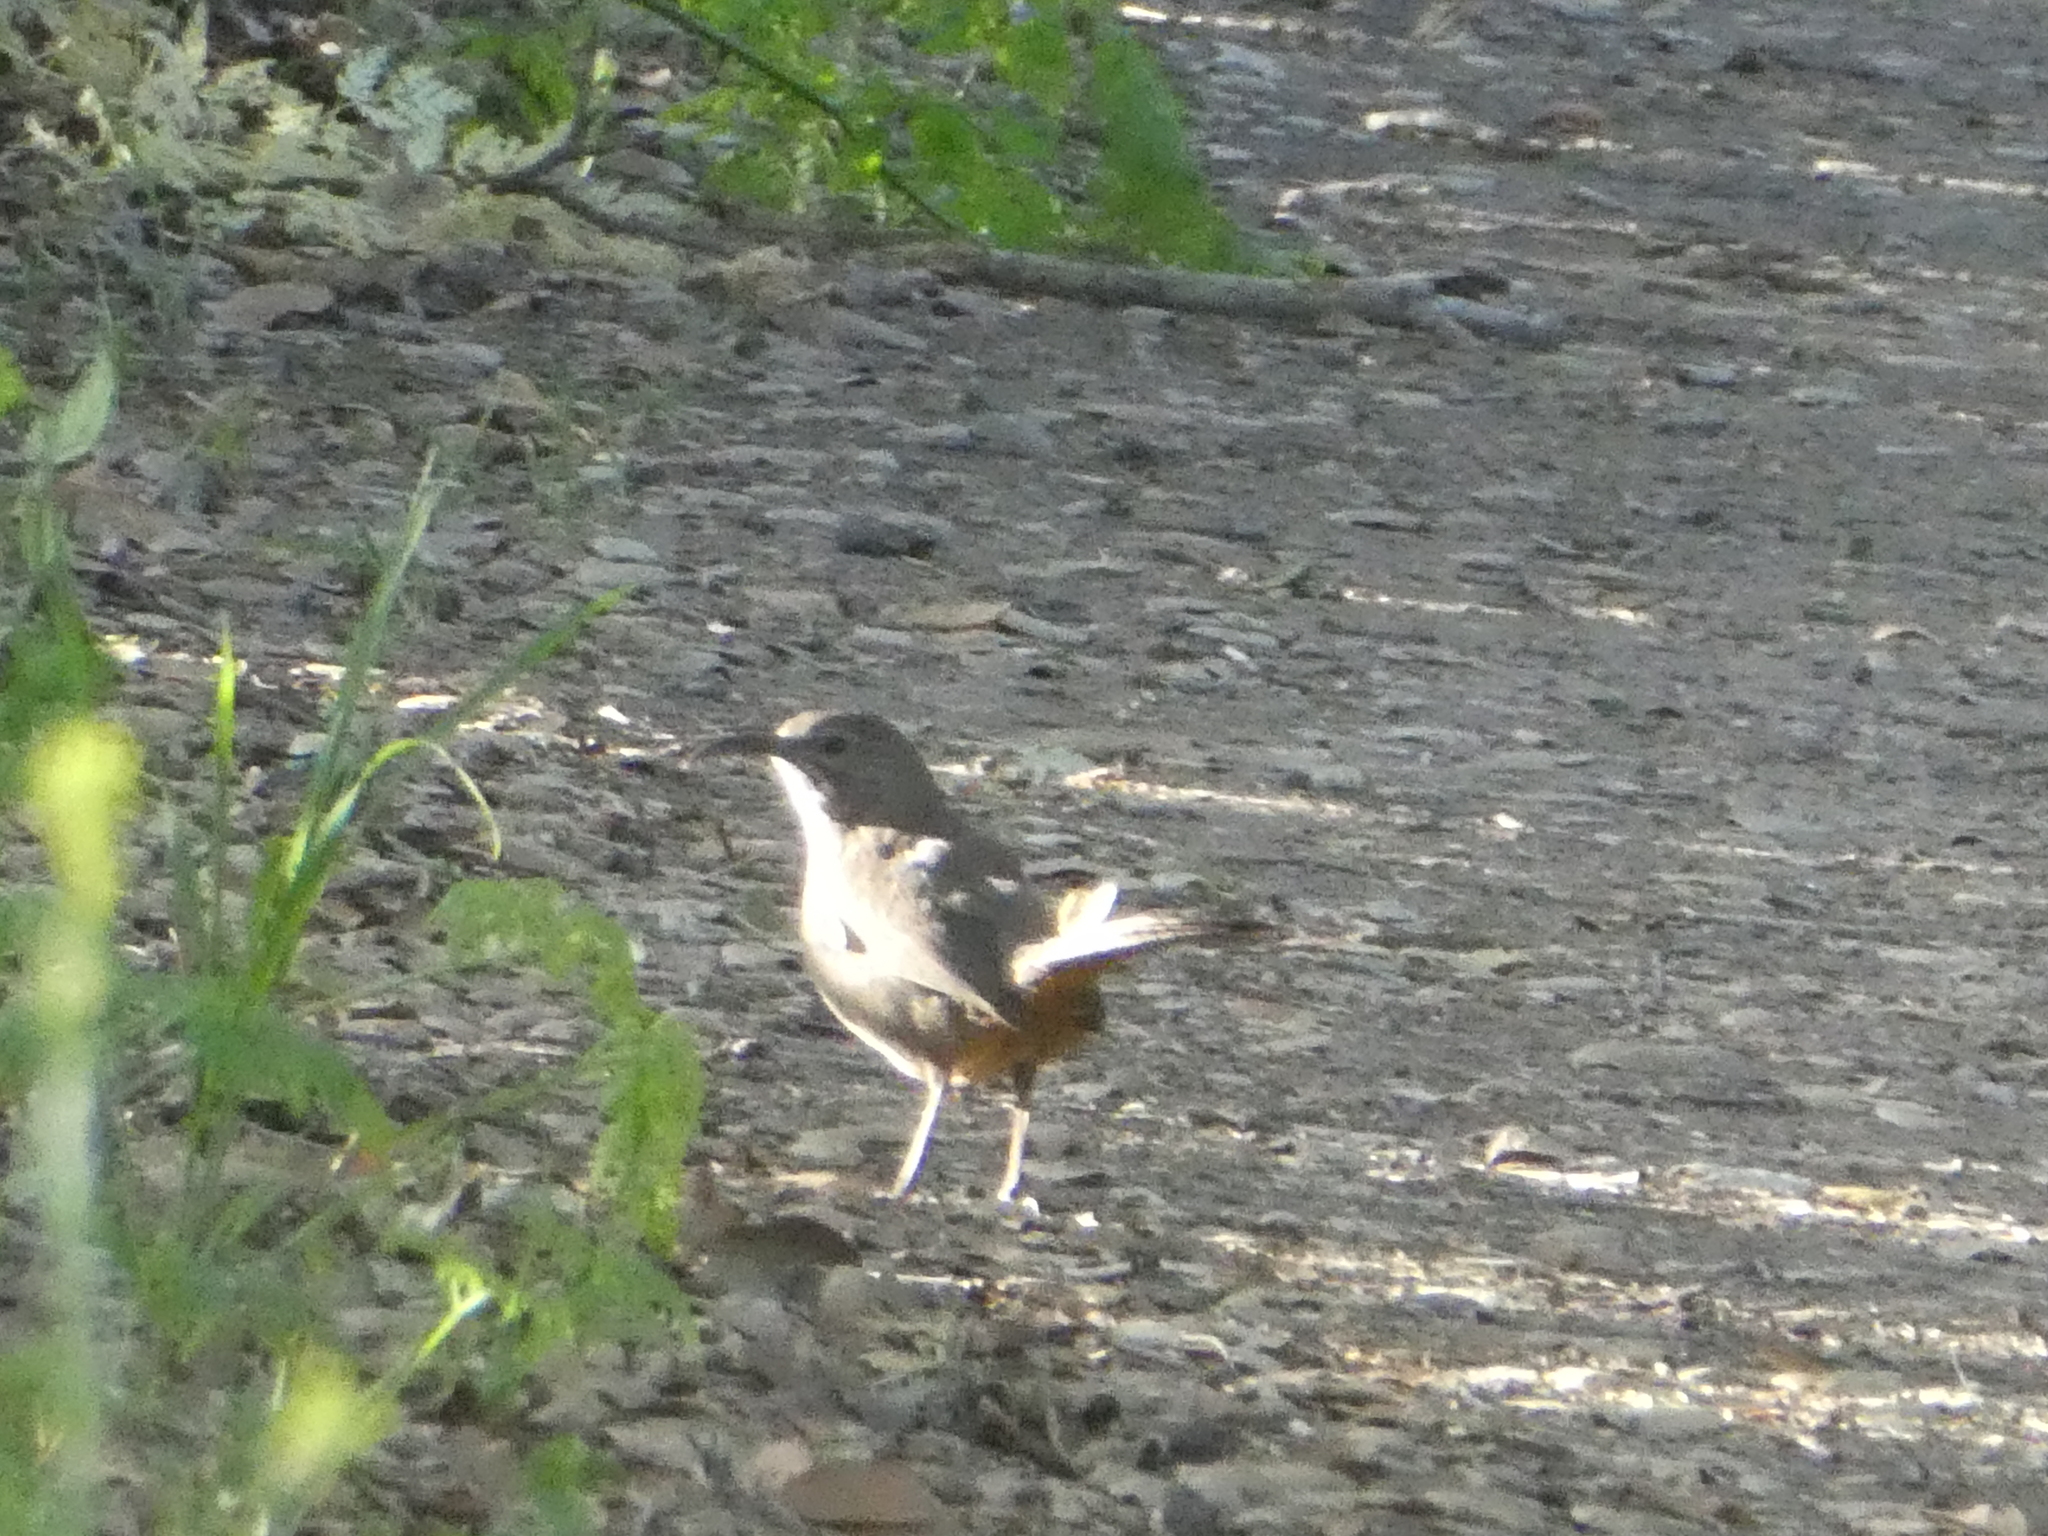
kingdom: Animalia
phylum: Chordata
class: Aves
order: Passeriformes
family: Mimidae
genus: Toxostoma
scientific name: Toxostoma redivivum
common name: California thrasher
